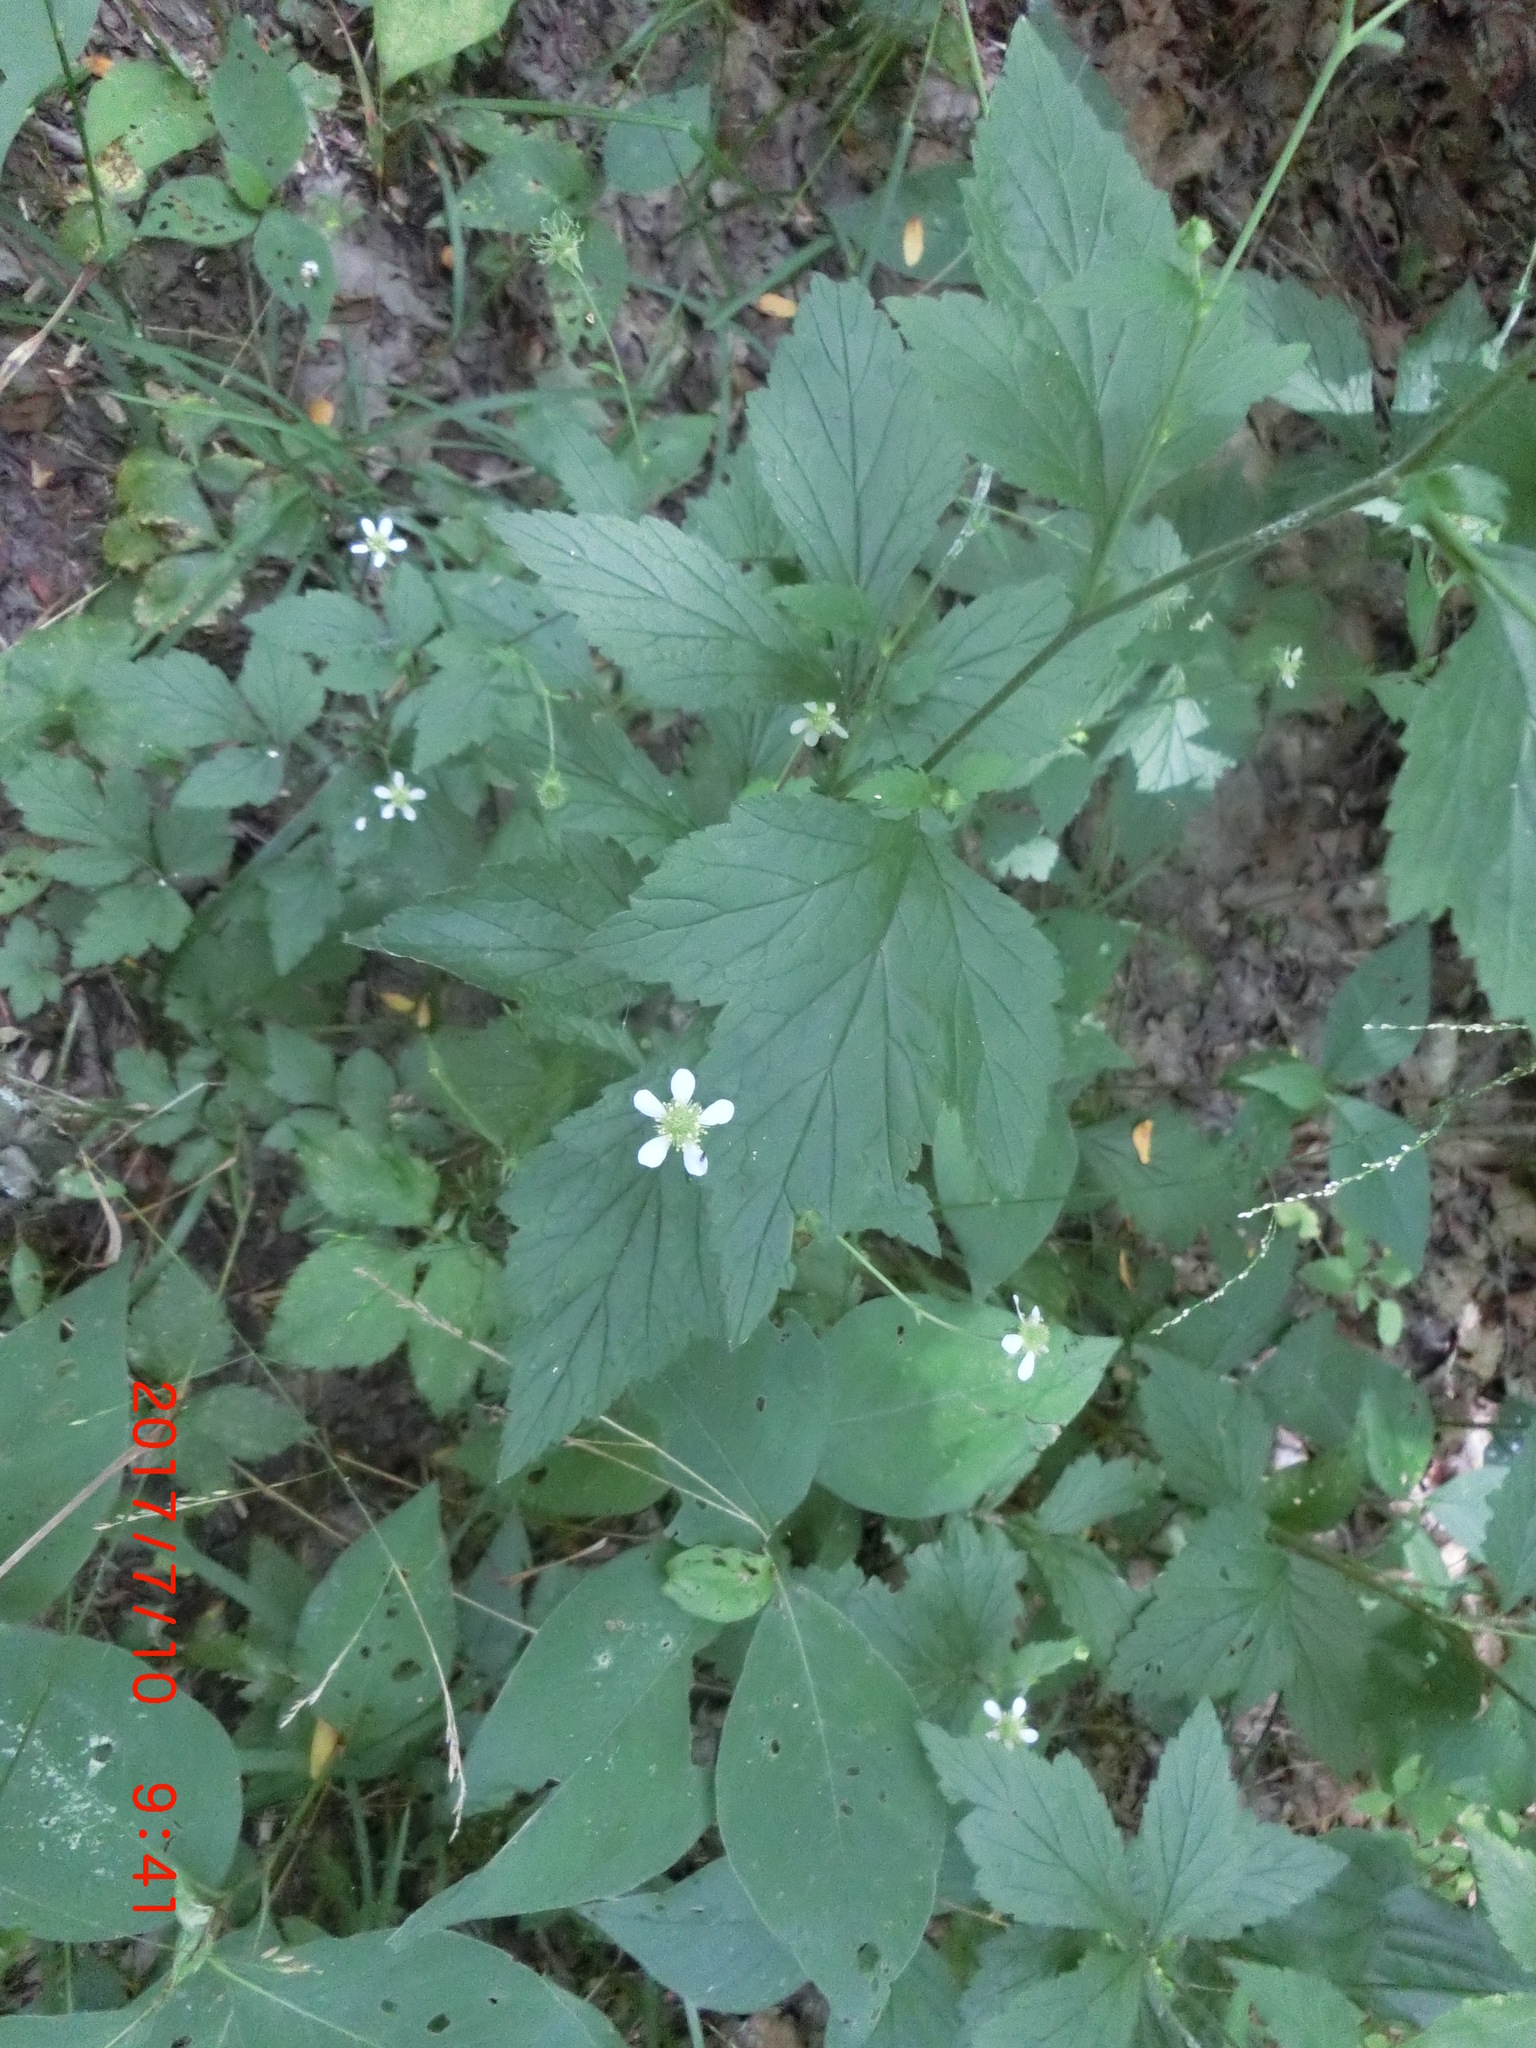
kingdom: Plantae
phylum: Tracheophyta
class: Magnoliopsida
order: Rosales
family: Rosaceae
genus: Geum
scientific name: Geum canadense
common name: White avens
